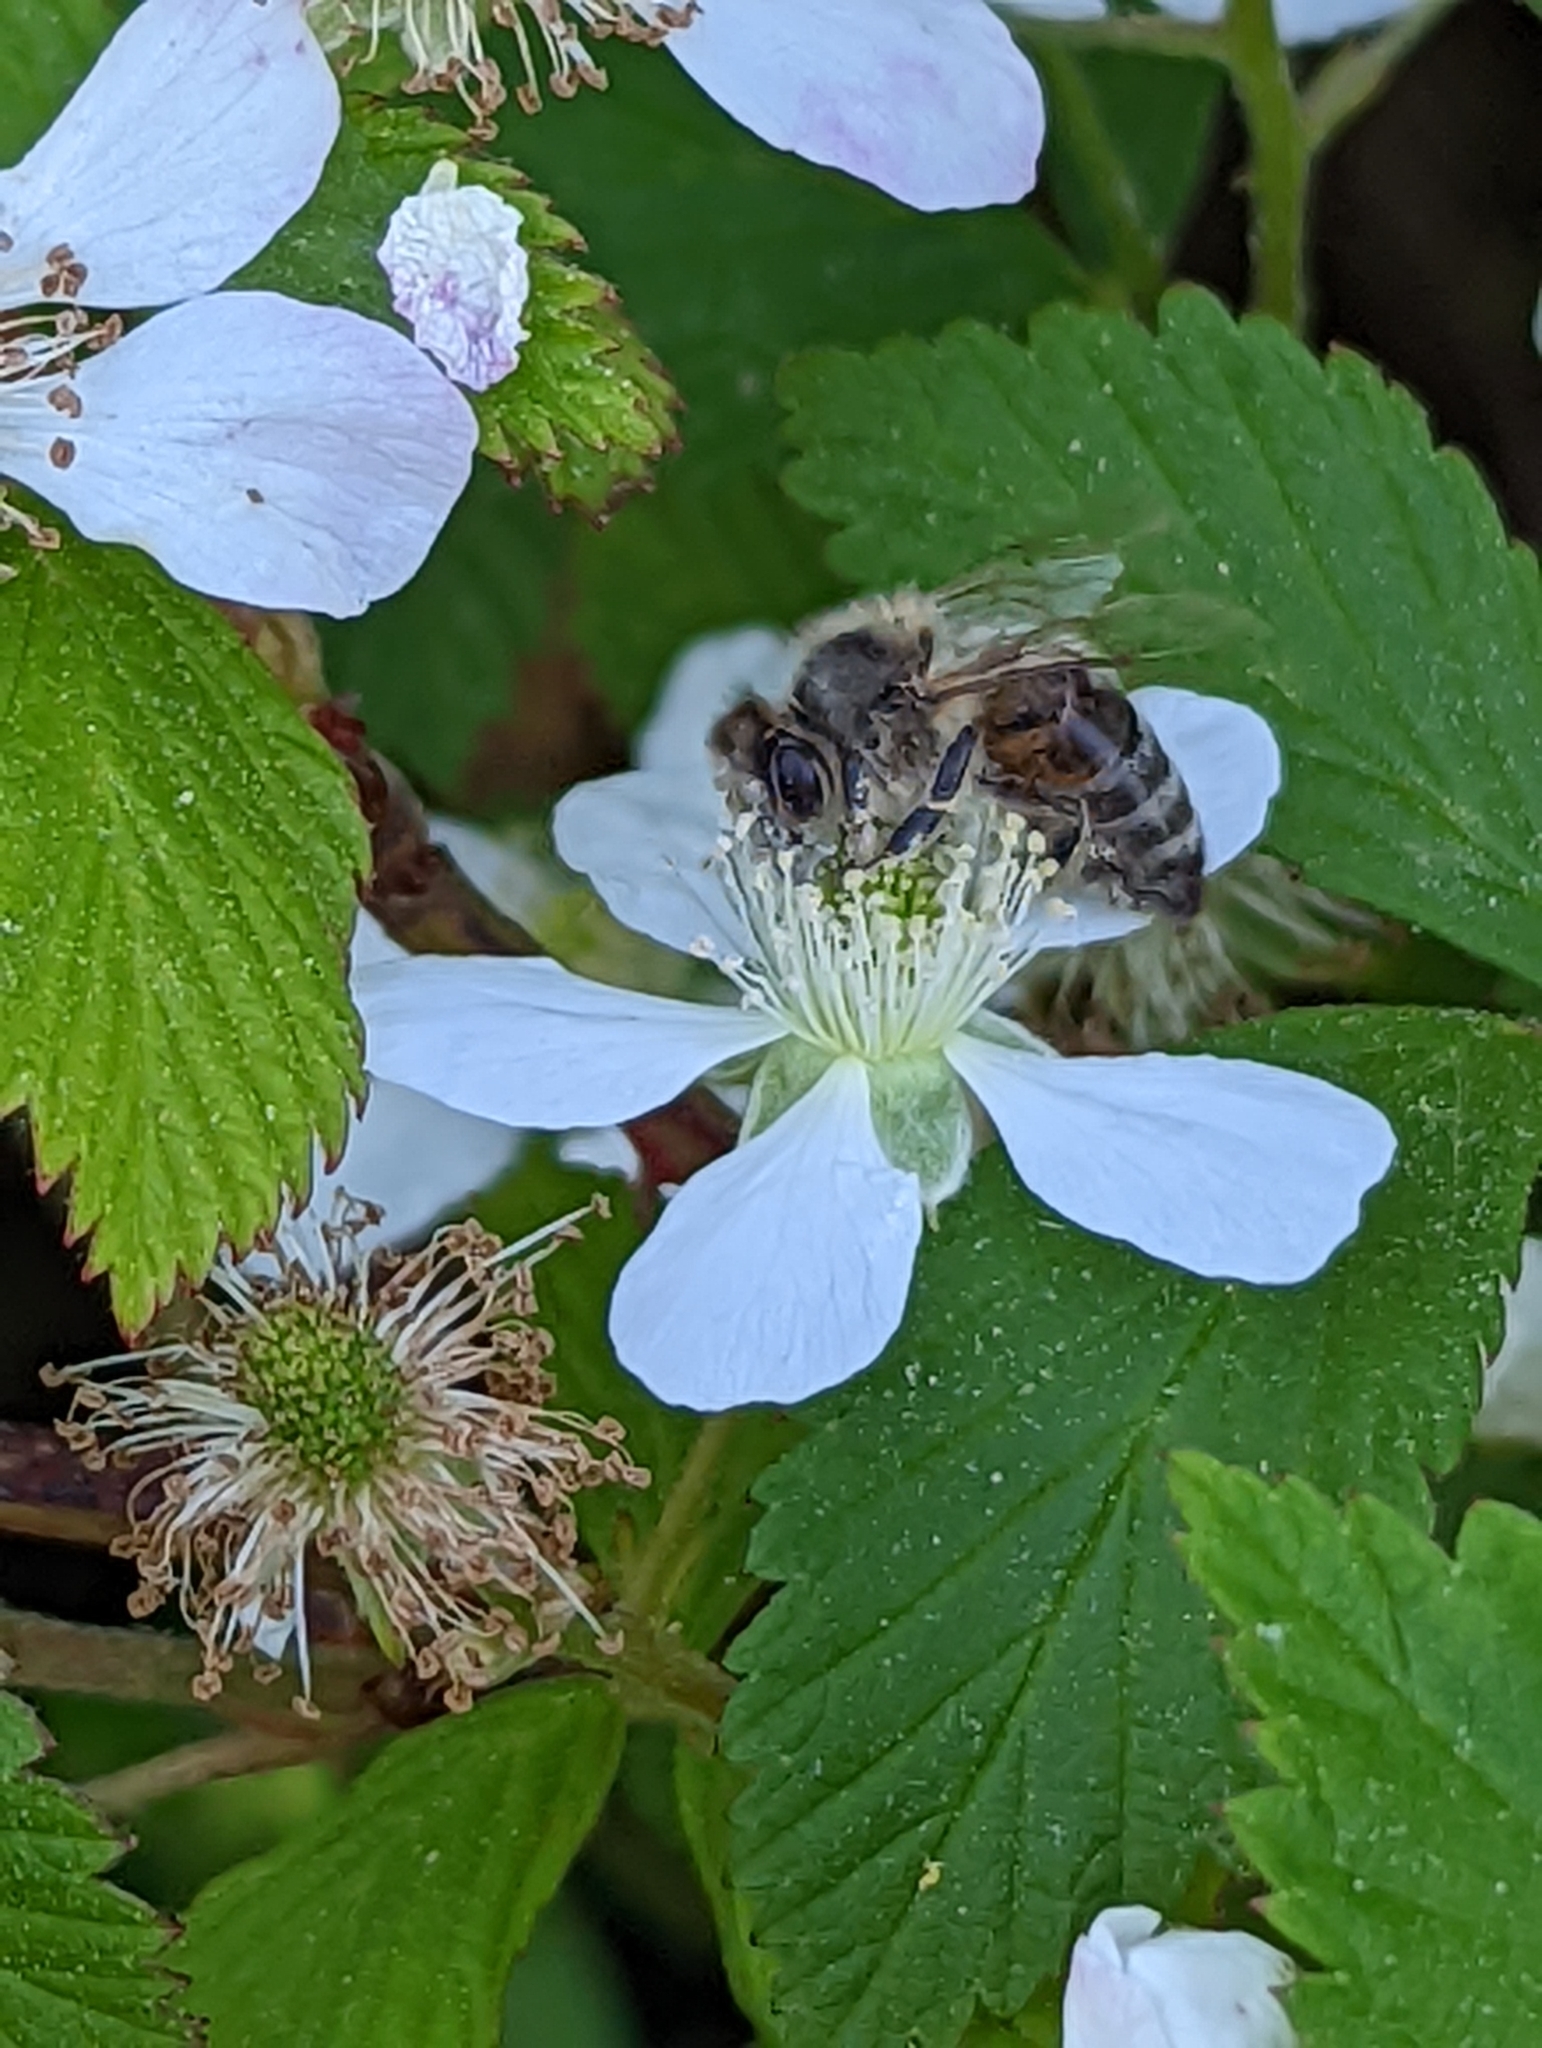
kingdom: Animalia
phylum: Arthropoda
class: Insecta
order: Hymenoptera
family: Apidae
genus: Apis
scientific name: Apis mellifera
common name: Honey bee
